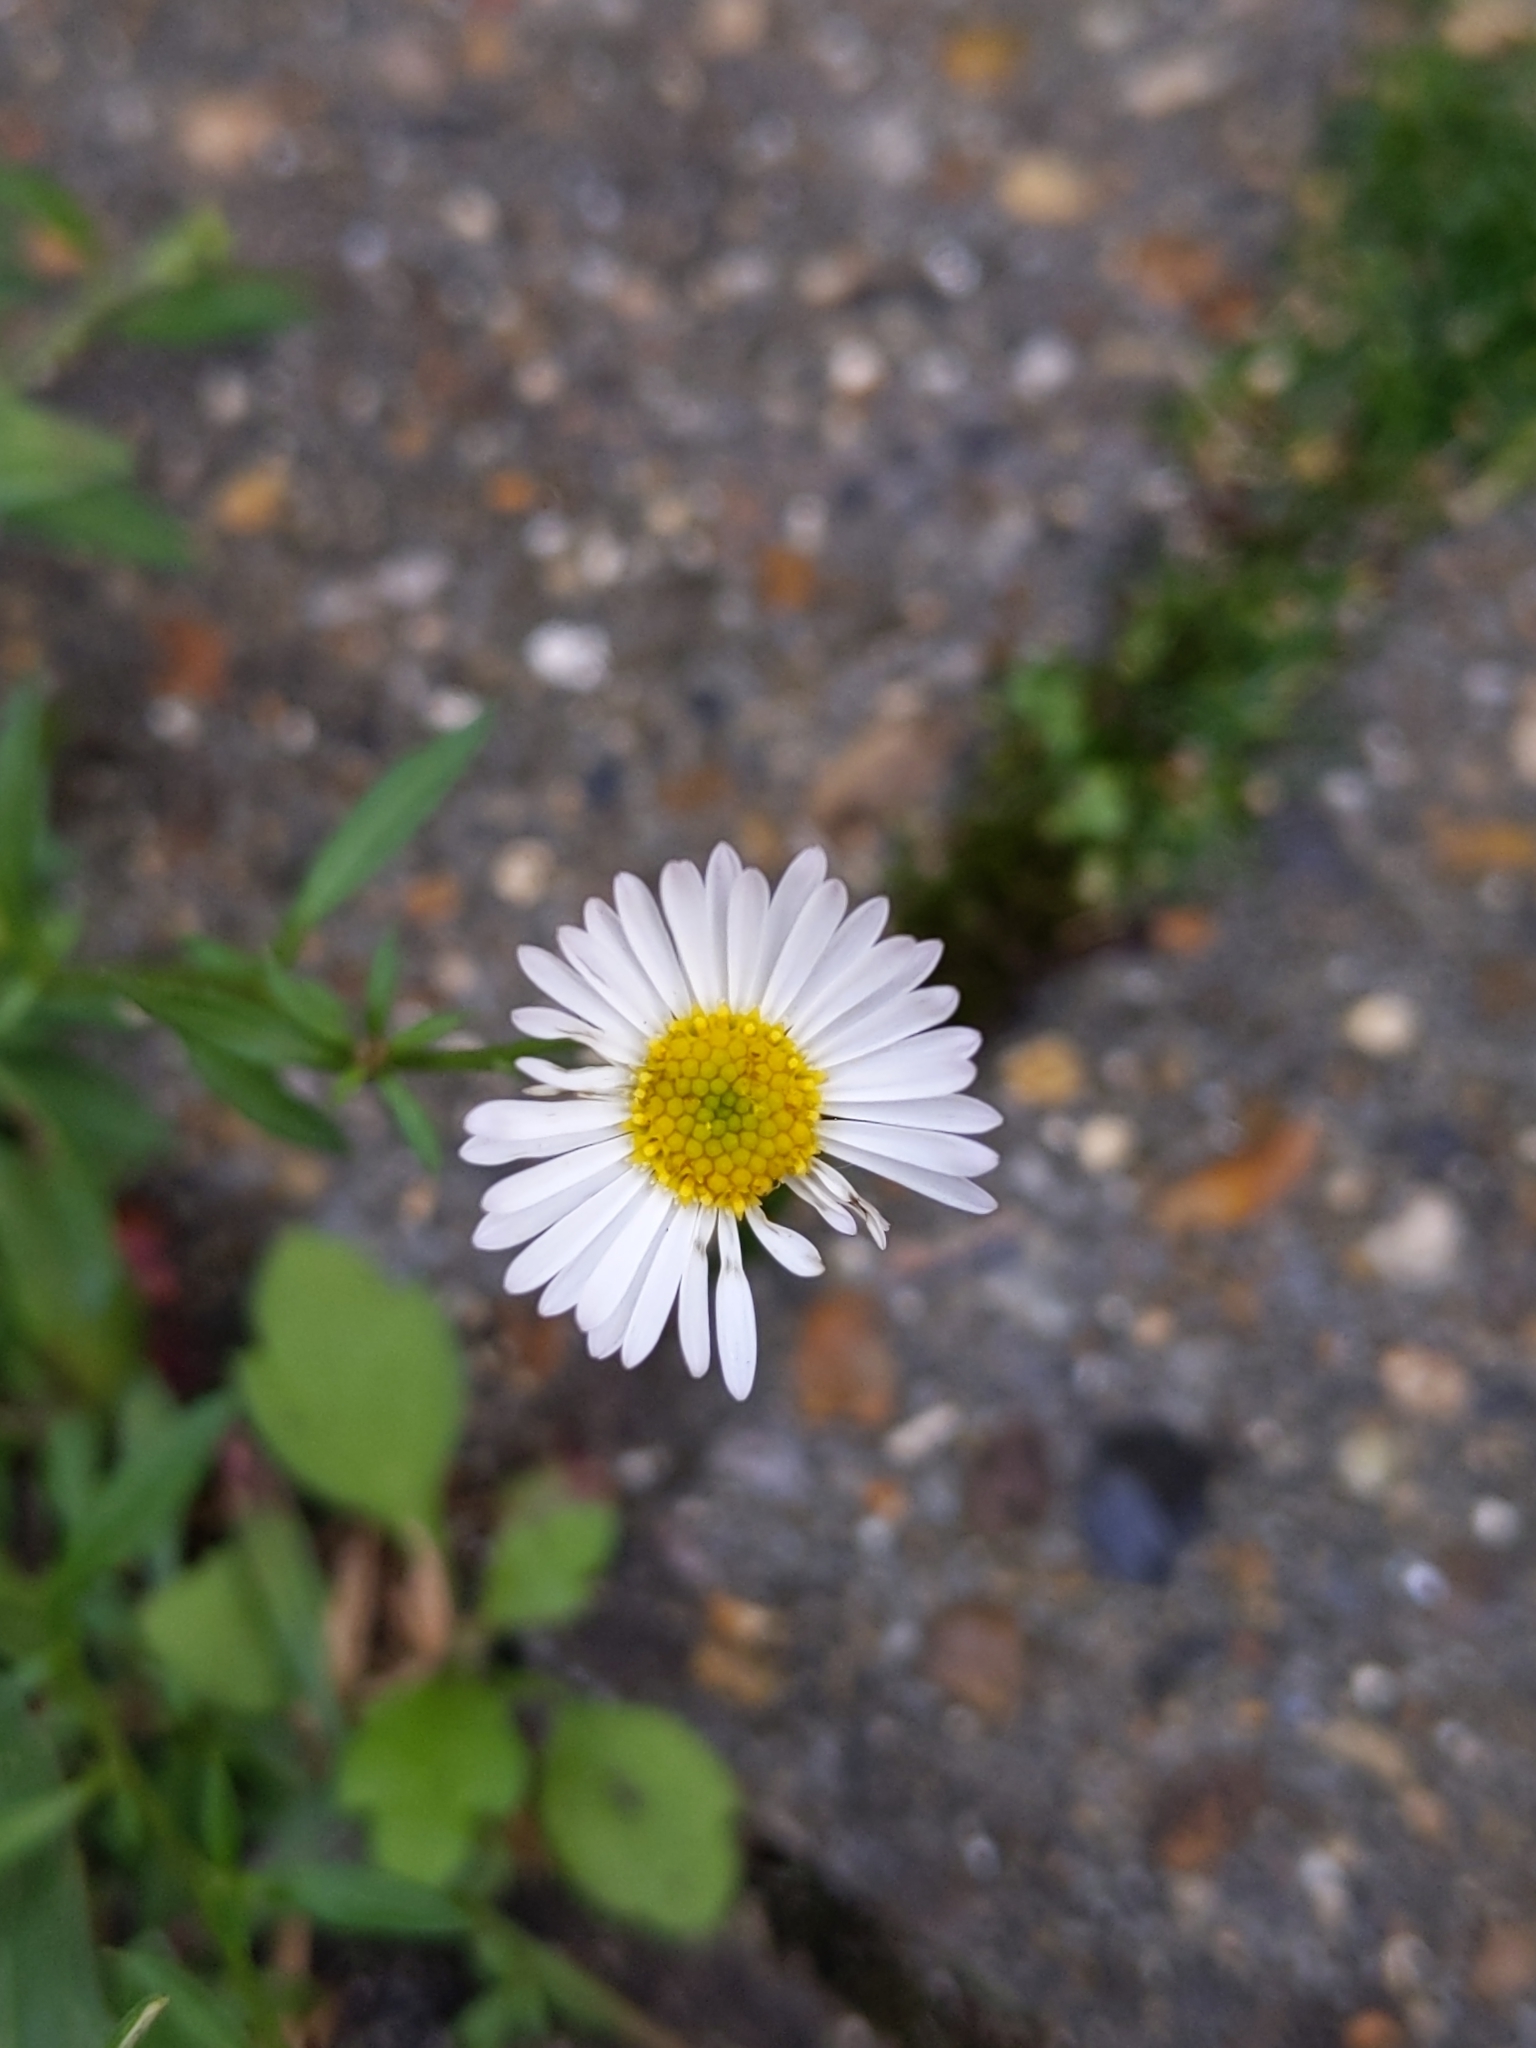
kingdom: Plantae
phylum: Tracheophyta
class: Magnoliopsida
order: Asterales
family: Asteraceae
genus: Erigeron
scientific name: Erigeron karvinskianus
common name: Mexican fleabane
